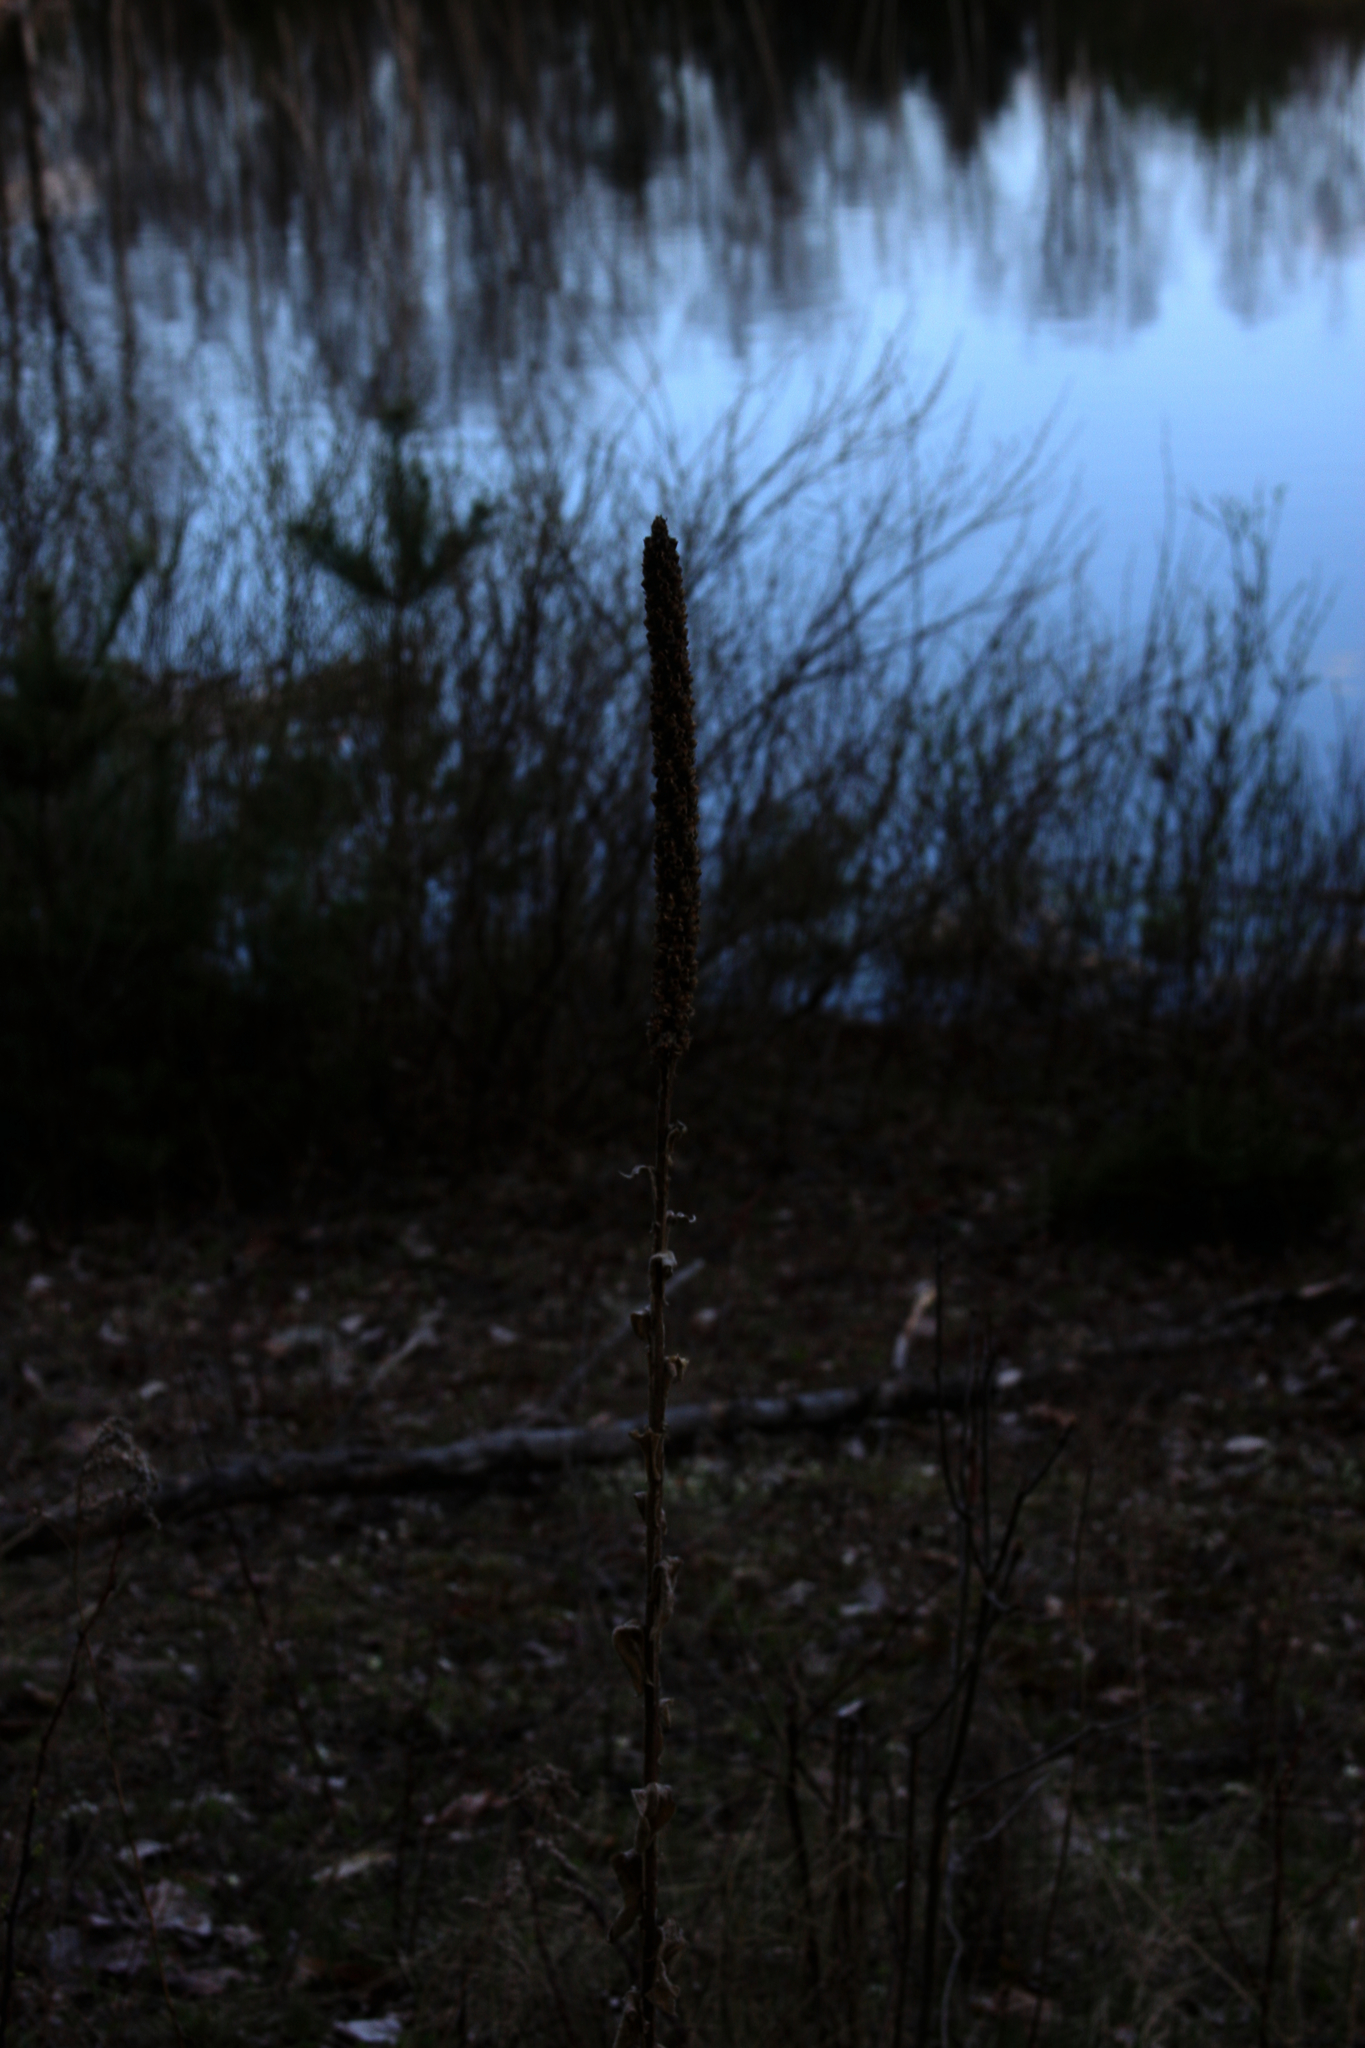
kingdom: Plantae
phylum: Tracheophyta
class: Magnoliopsida
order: Lamiales
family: Scrophulariaceae
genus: Verbascum
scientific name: Verbascum thapsus
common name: Common mullein
